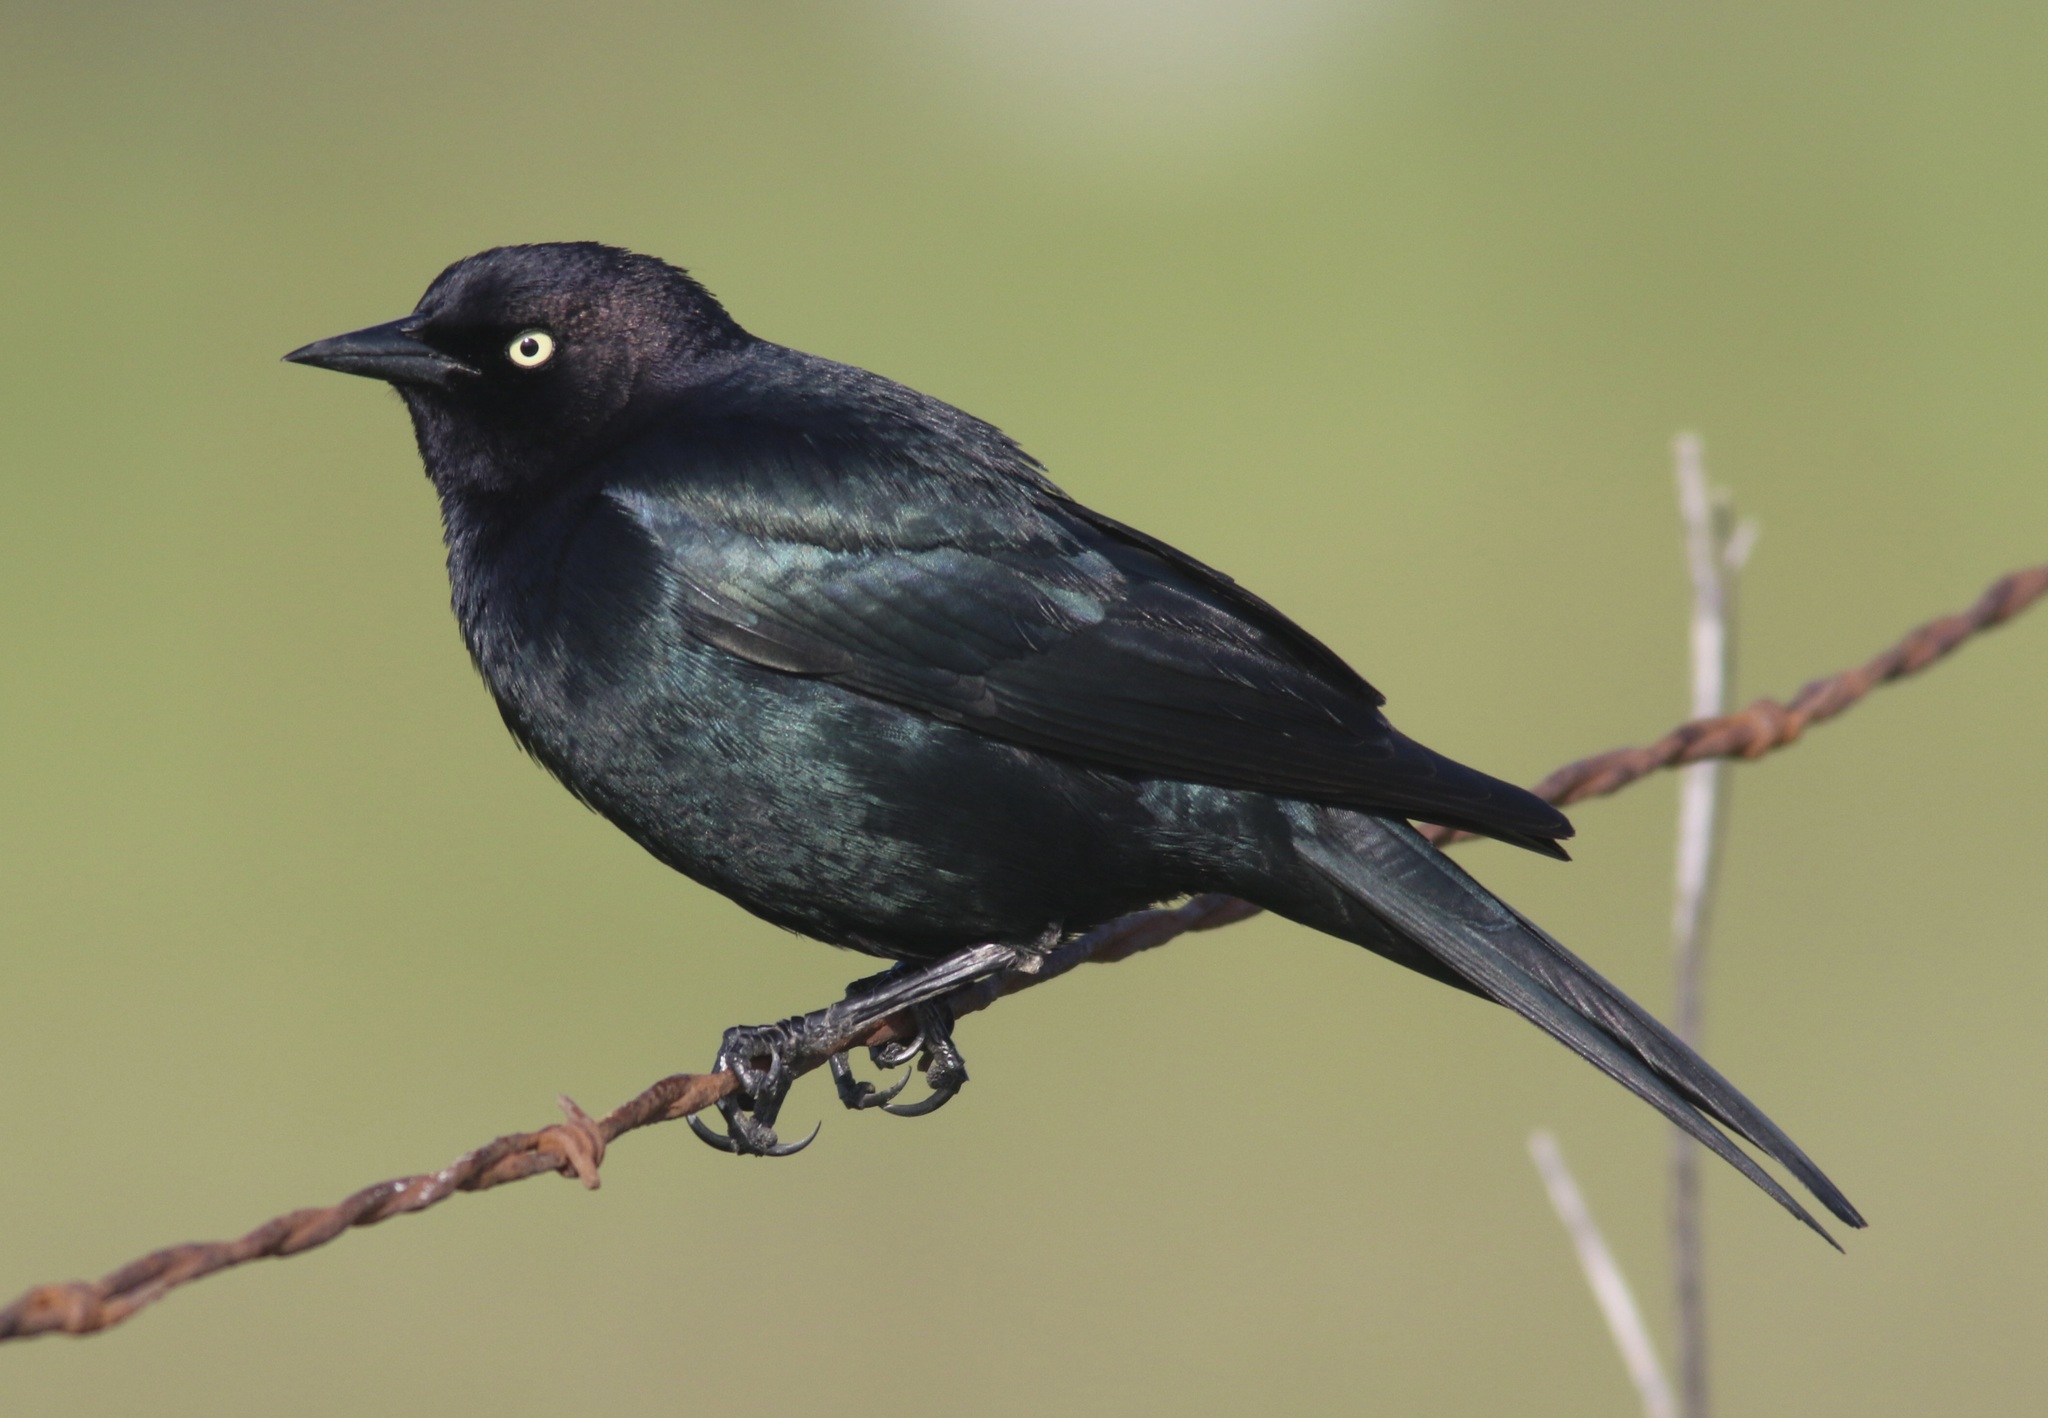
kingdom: Animalia
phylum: Chordata
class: Aves
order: Passeriformes
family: Icteridae
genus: Euphagus
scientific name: Euphagus cyanocephalus
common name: Brewer's blackbird
